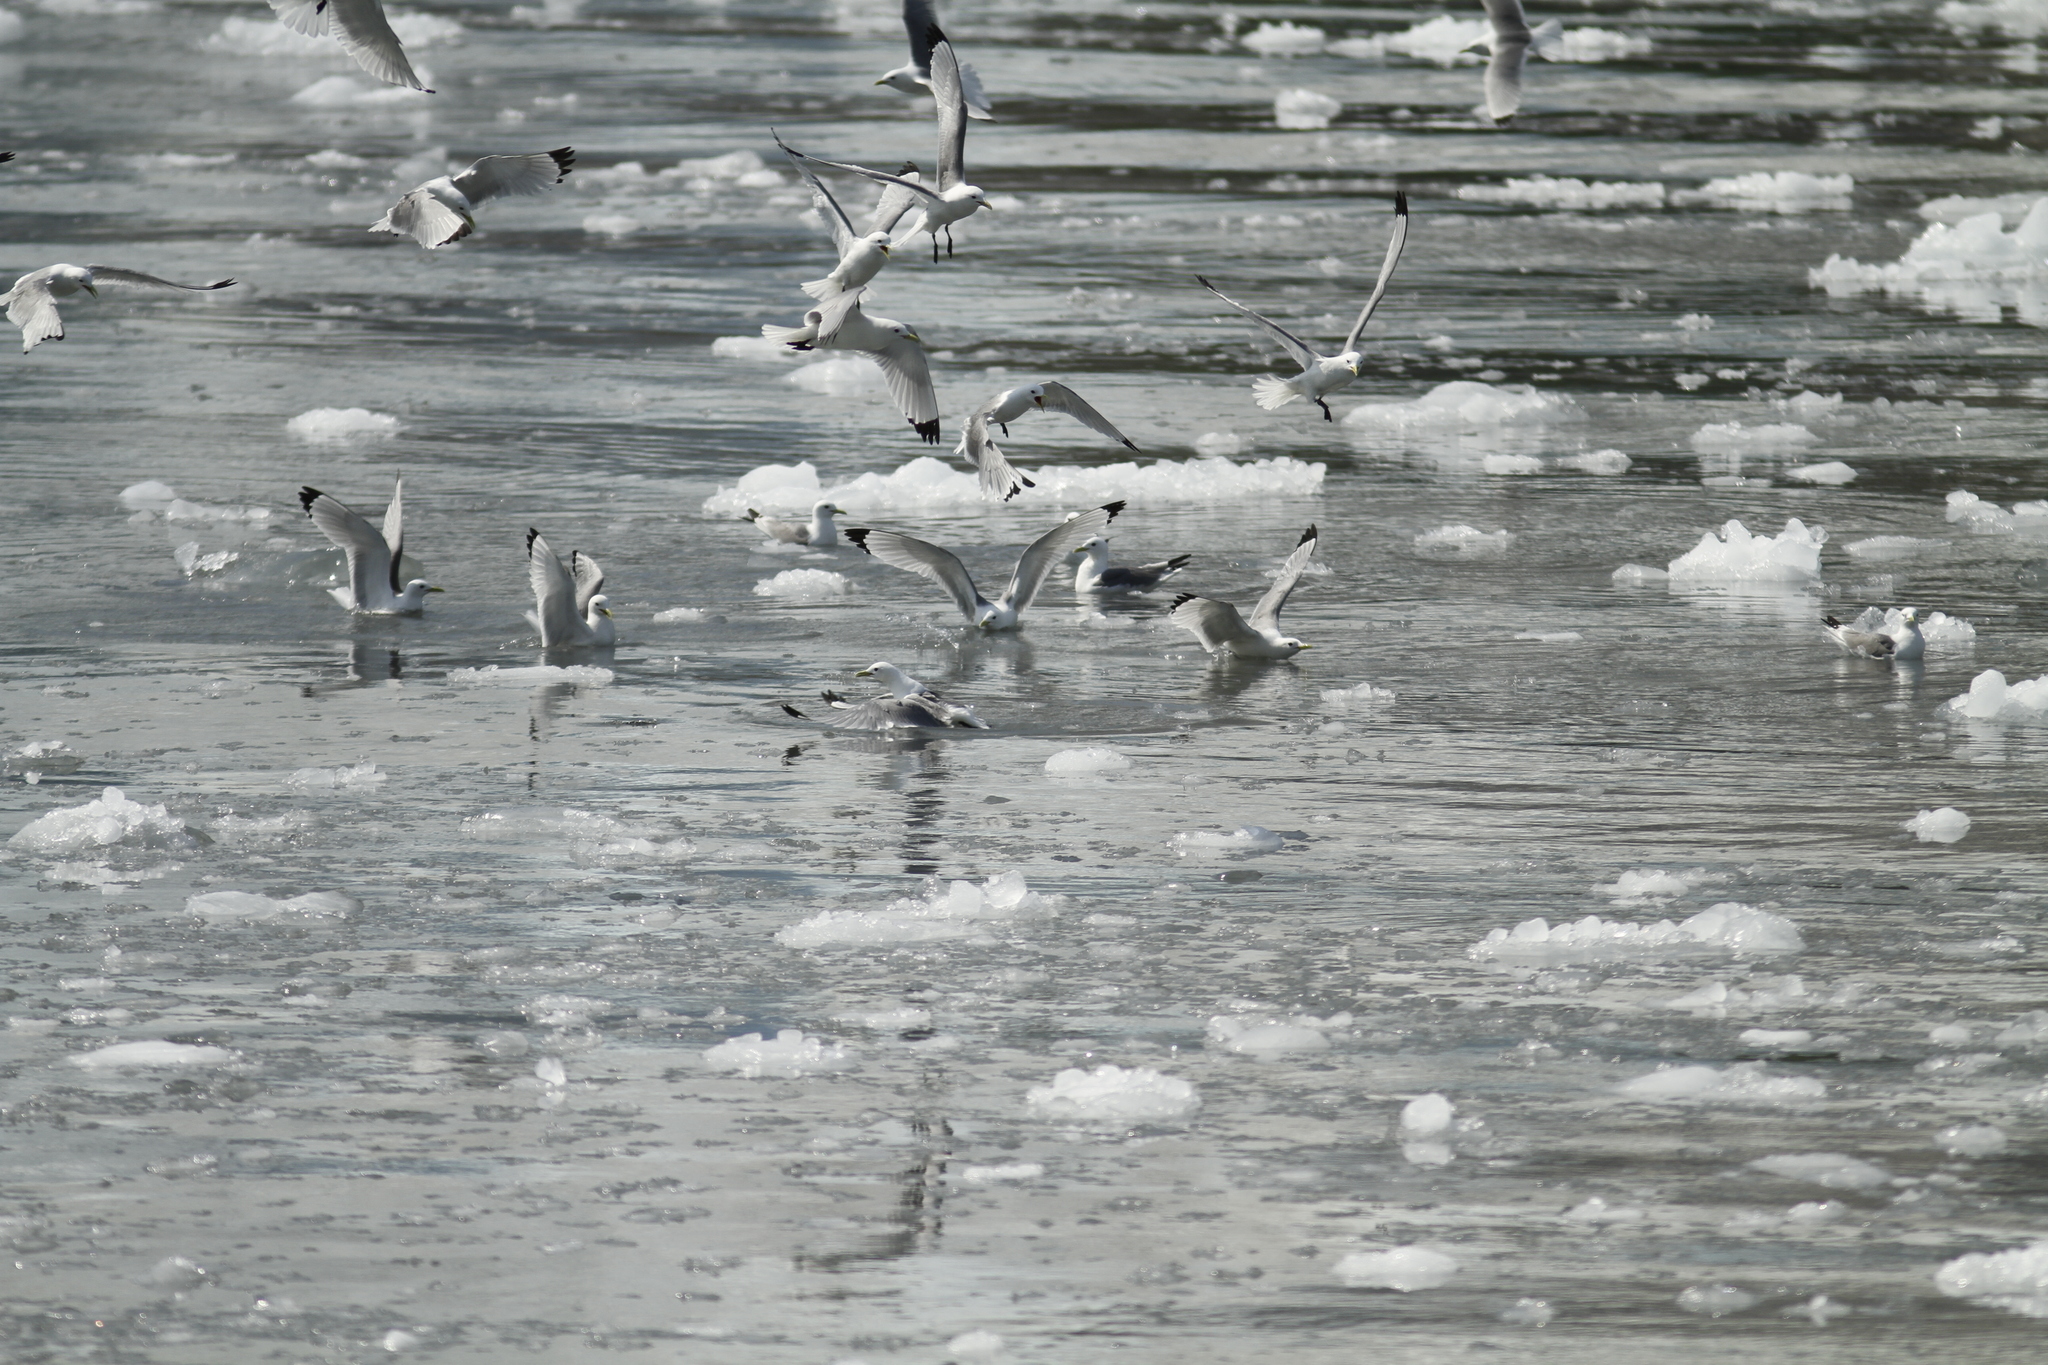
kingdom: Animalia
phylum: Chordata
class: Aves
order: Charadriiformes
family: Laridae
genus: Rissa
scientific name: Rissa tridactyla
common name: Black-legged kittiwake
